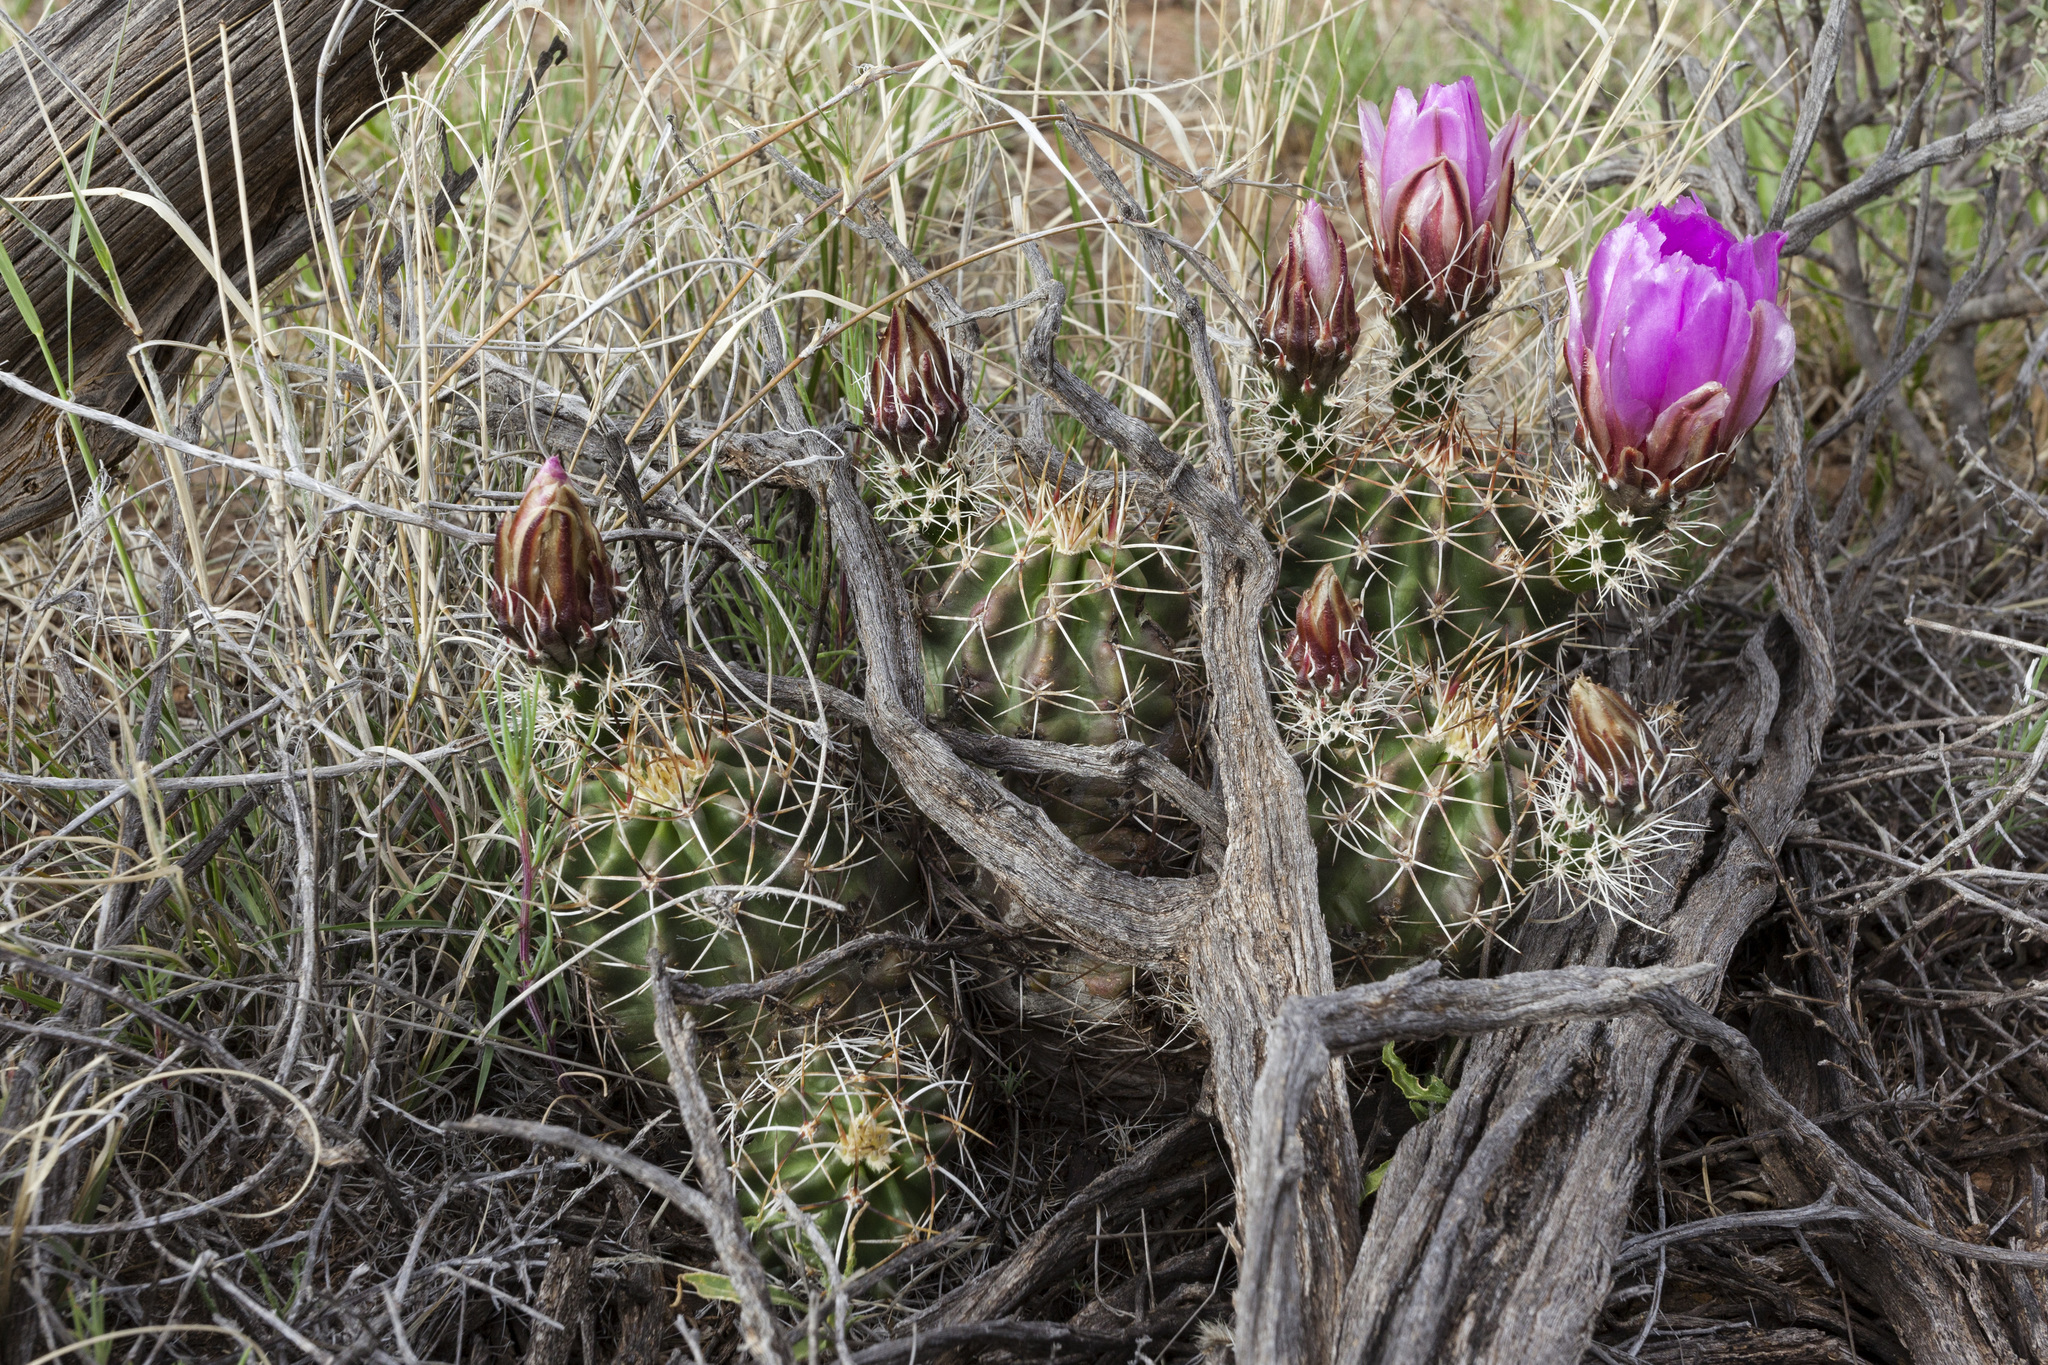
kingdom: Plantae
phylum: Tracheophyta
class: Magnoliopsida
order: Caryophyllales
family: Cactaceae
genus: Echinocereus
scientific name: Echinocereus fendleri
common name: Fendler's hedgehog cactus
